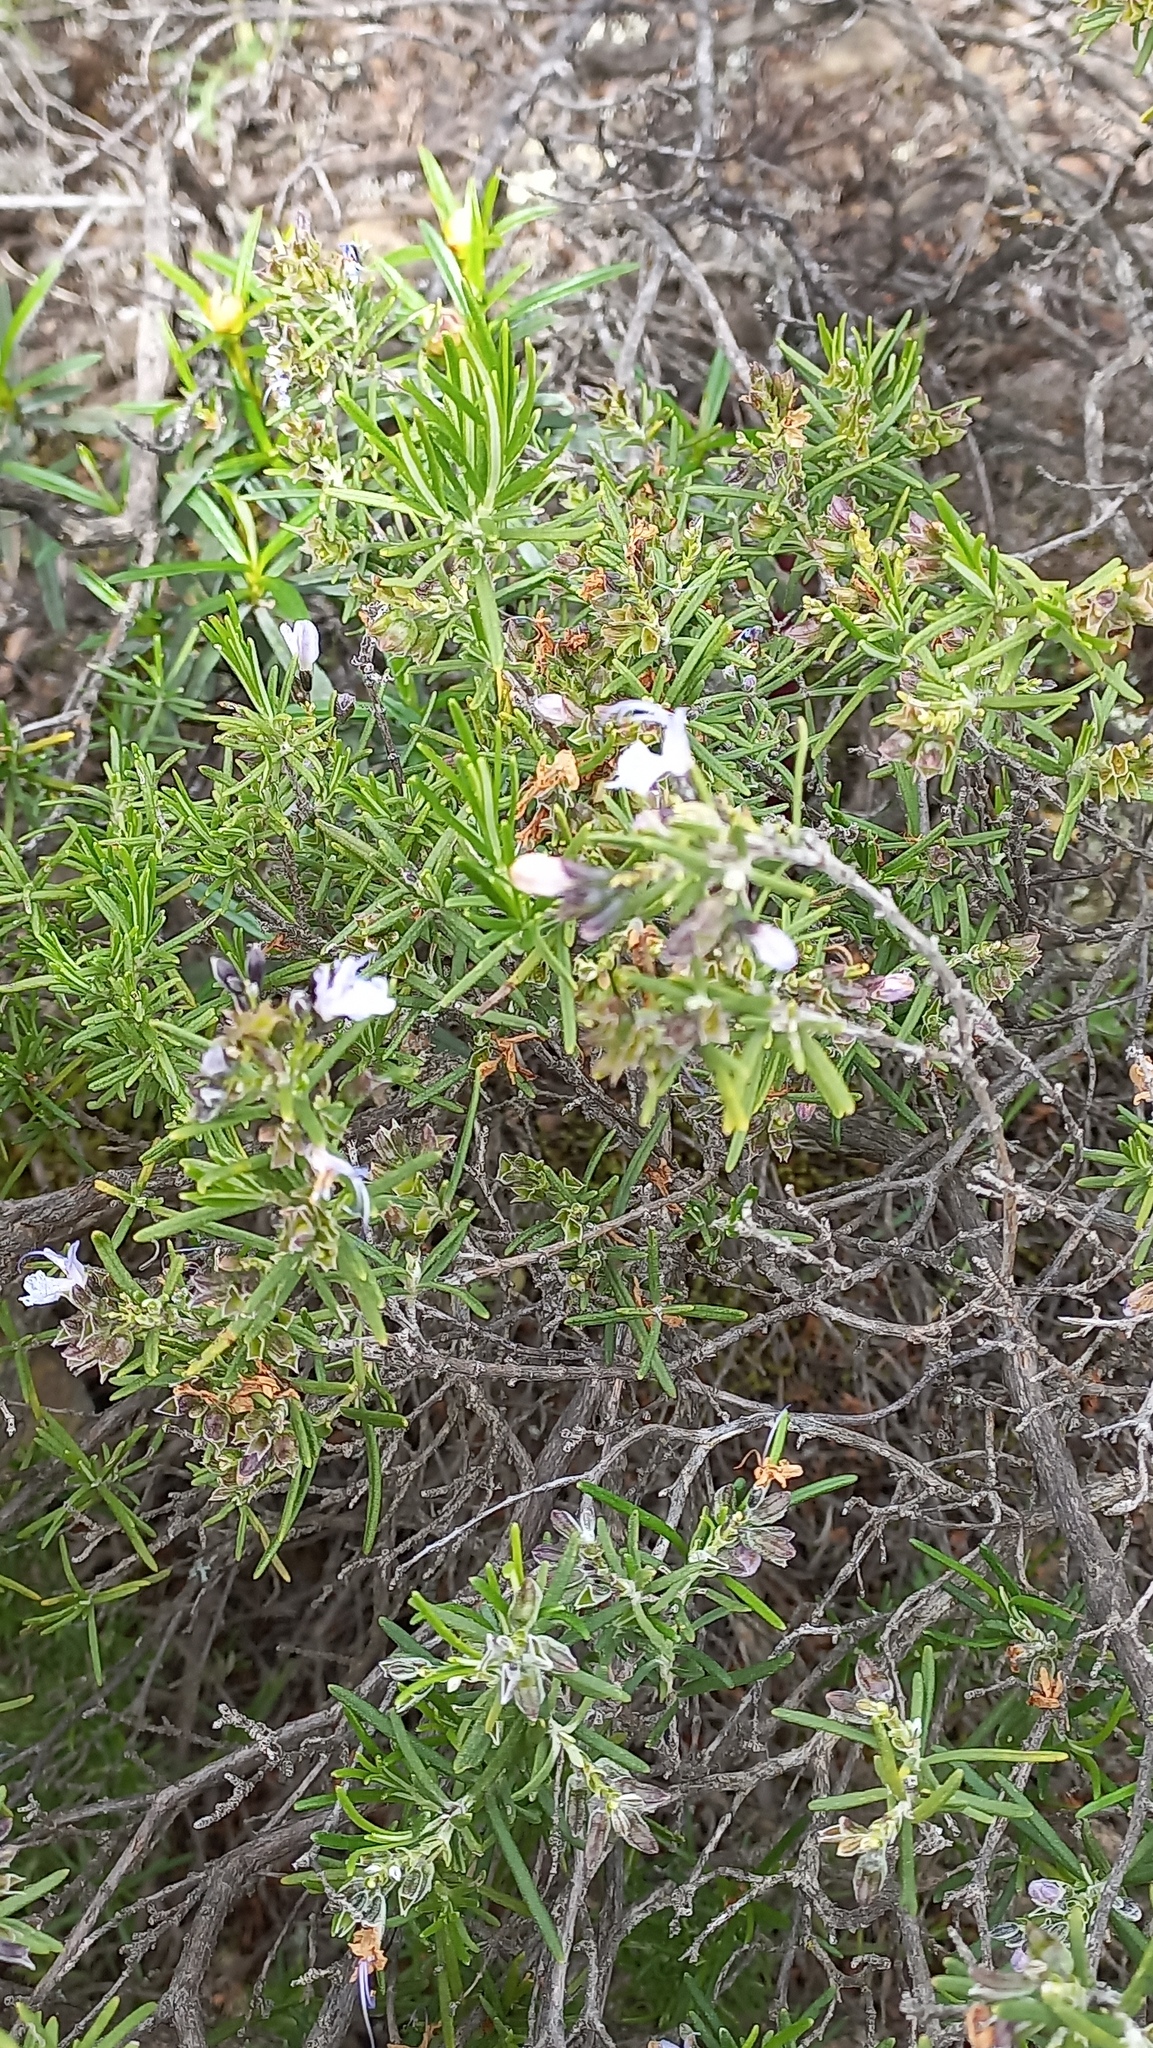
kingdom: Plantae
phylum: Tracheophyta
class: Magnoliopsida
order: Lamiales
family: Lamiaceae
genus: Salvia
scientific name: Salvia rosmarinus
